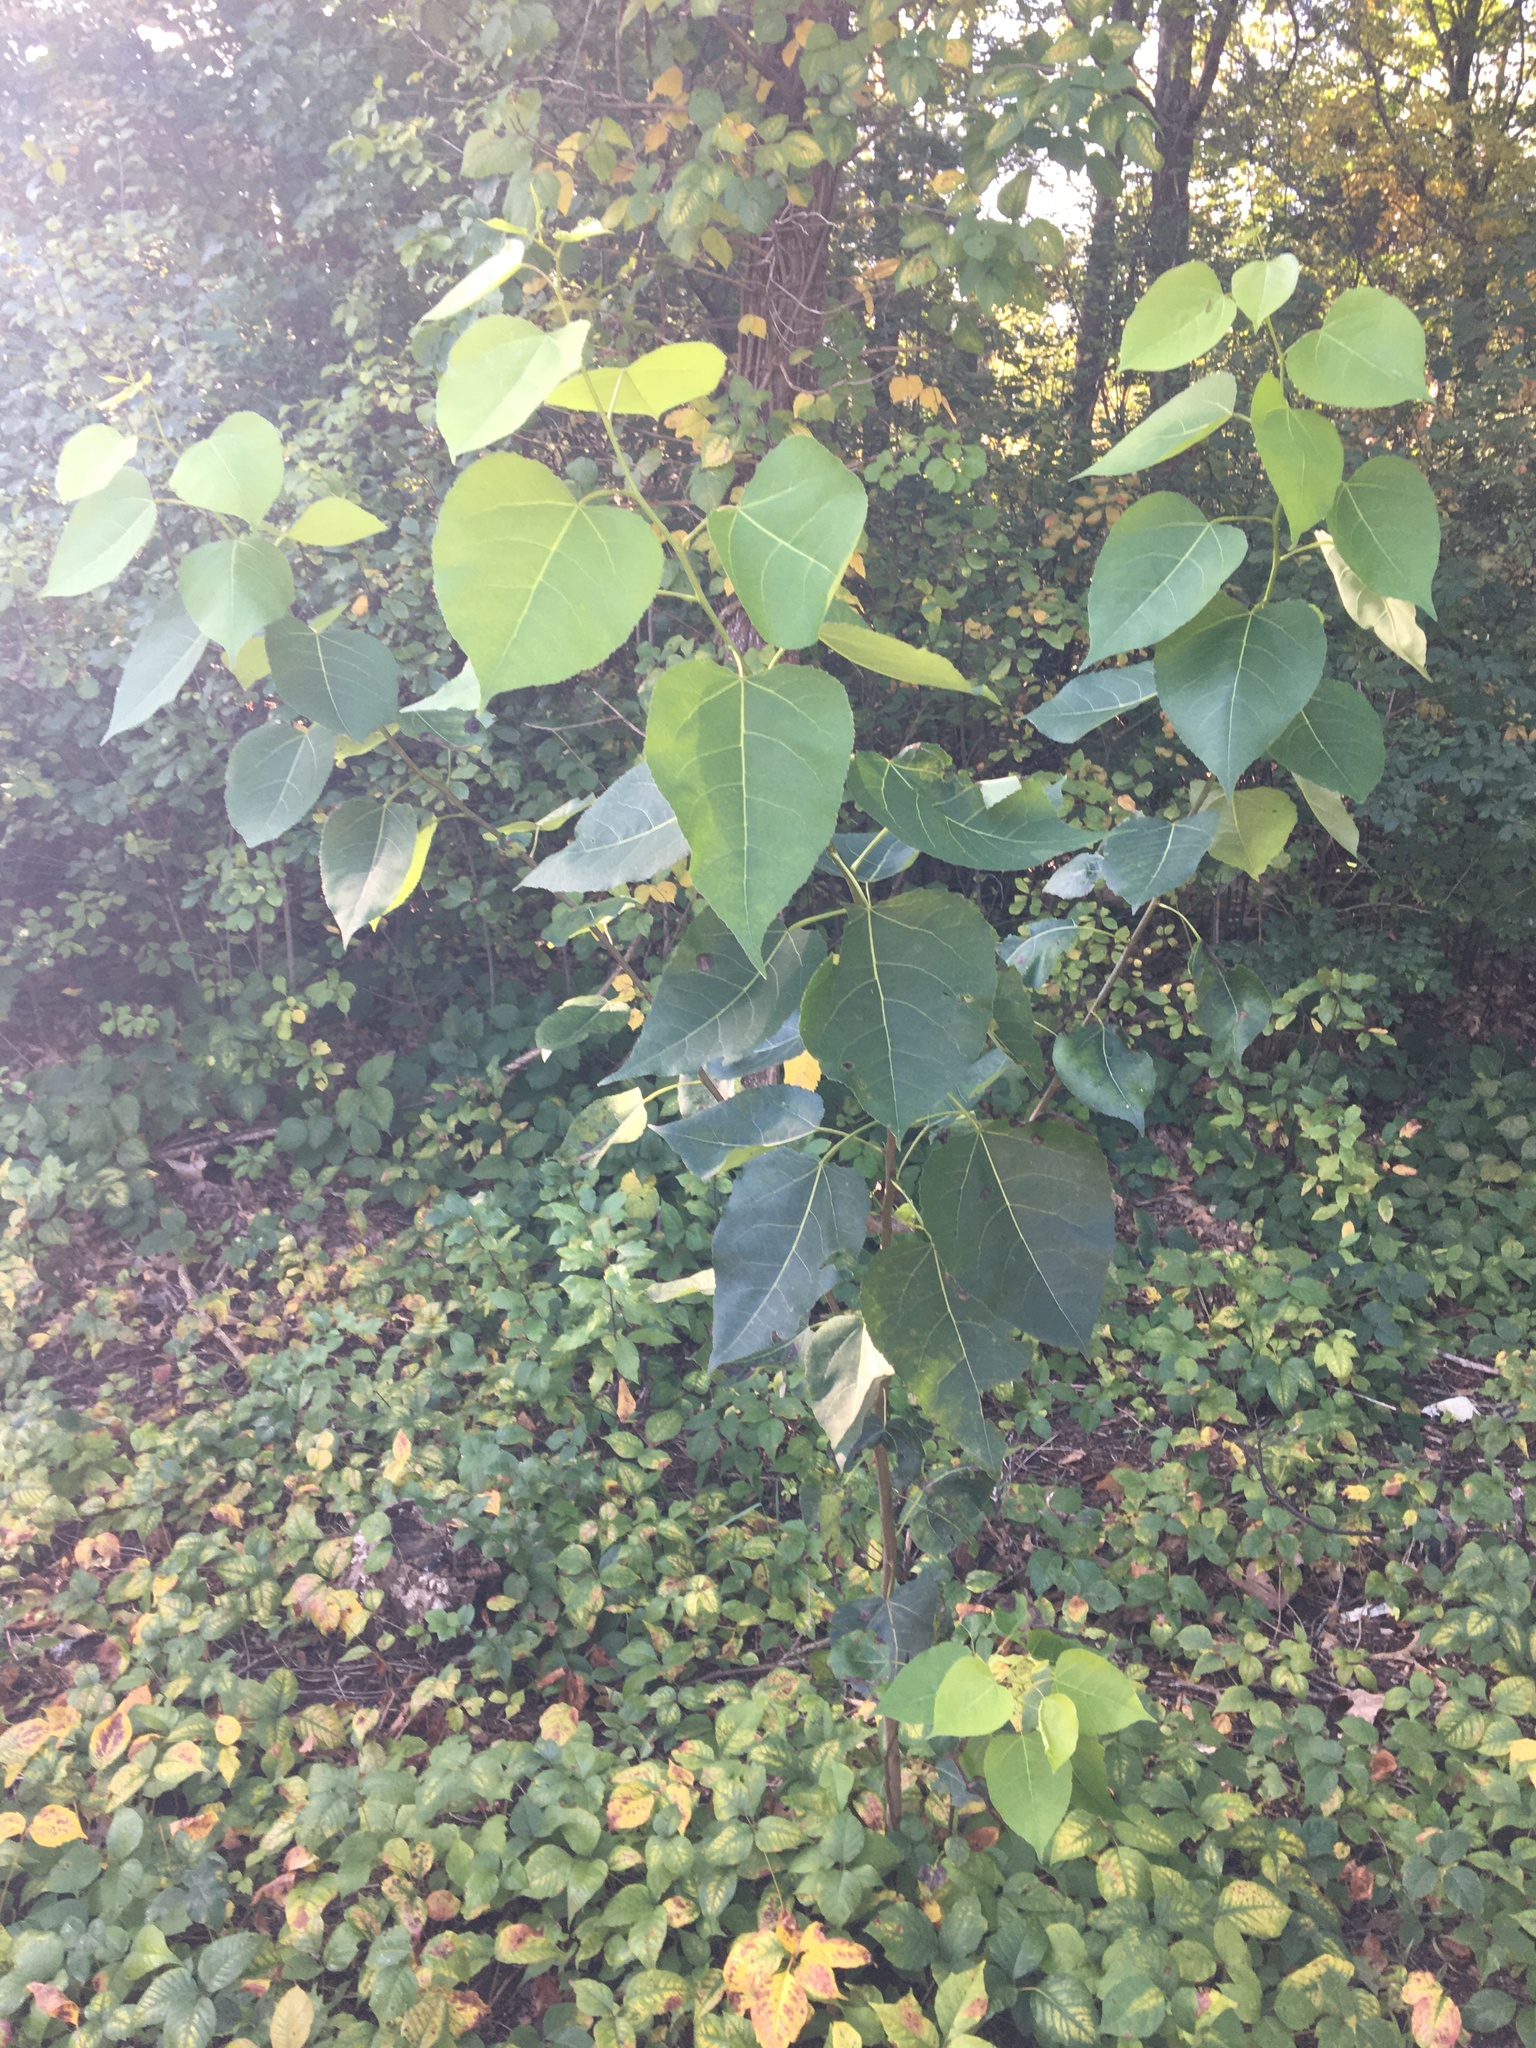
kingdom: Plantae
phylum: Tracheophyta
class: Magnoliopsida
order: Malpighiales
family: Salicaceae
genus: Populus
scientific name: Populus tremuloides
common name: Quaking aspen
